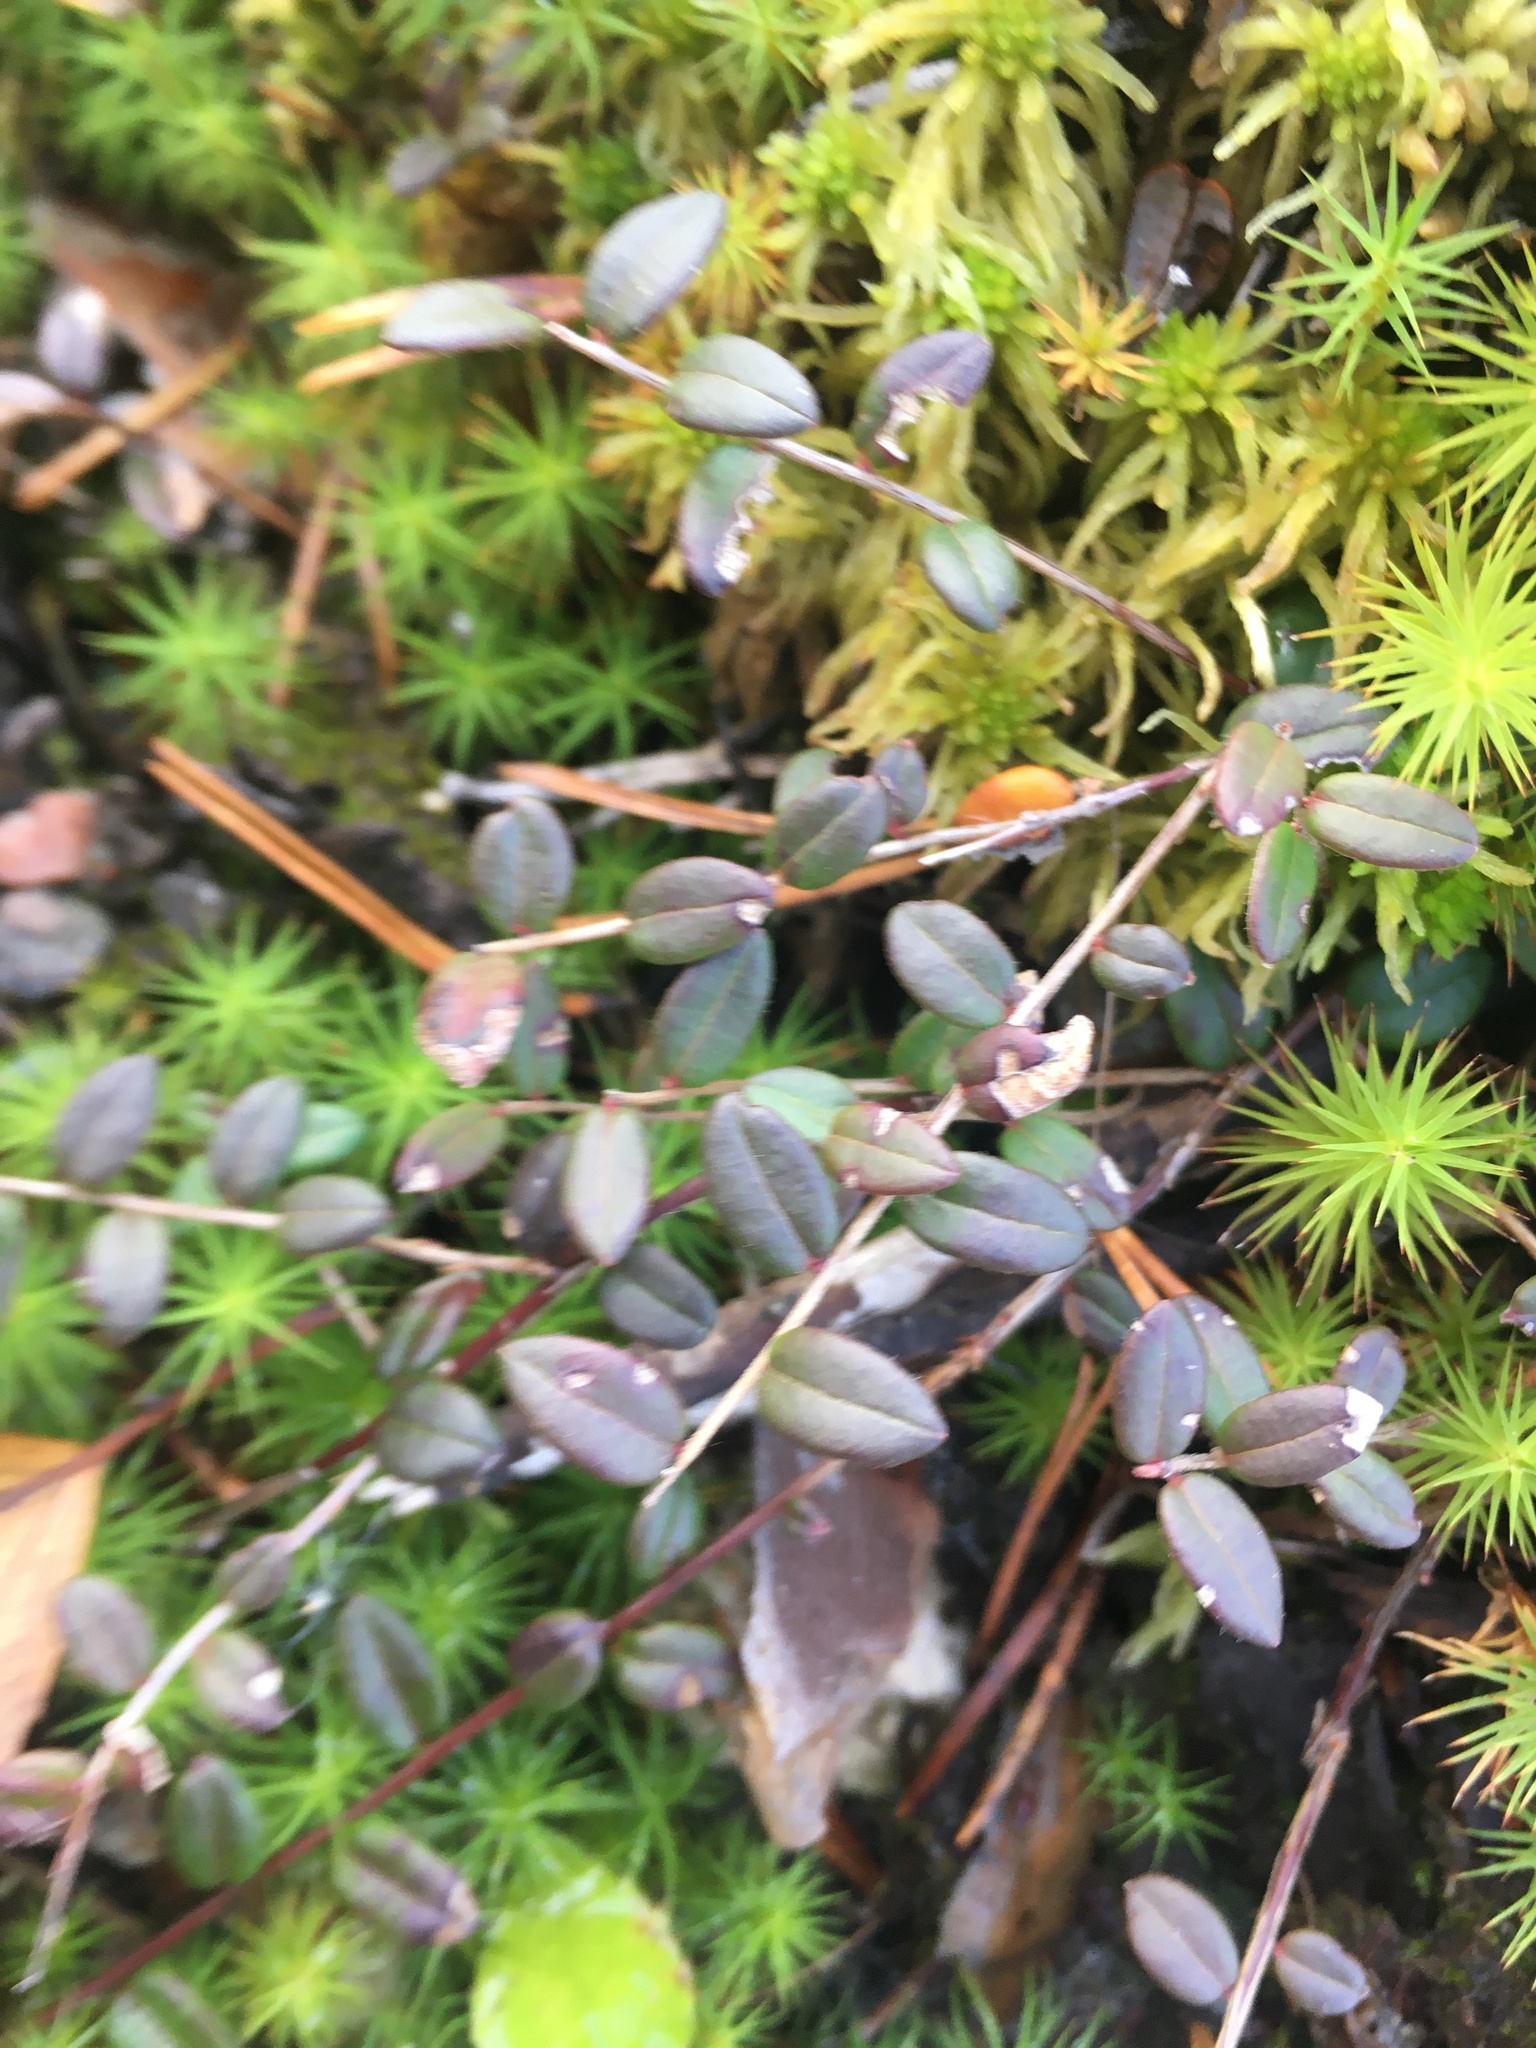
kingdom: Plantae
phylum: Tracheophyta
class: Magnoliopsida
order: Ericales
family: Ericaceae
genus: Vaccinium
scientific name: Vaccinium oxycoccos
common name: Cranberry
